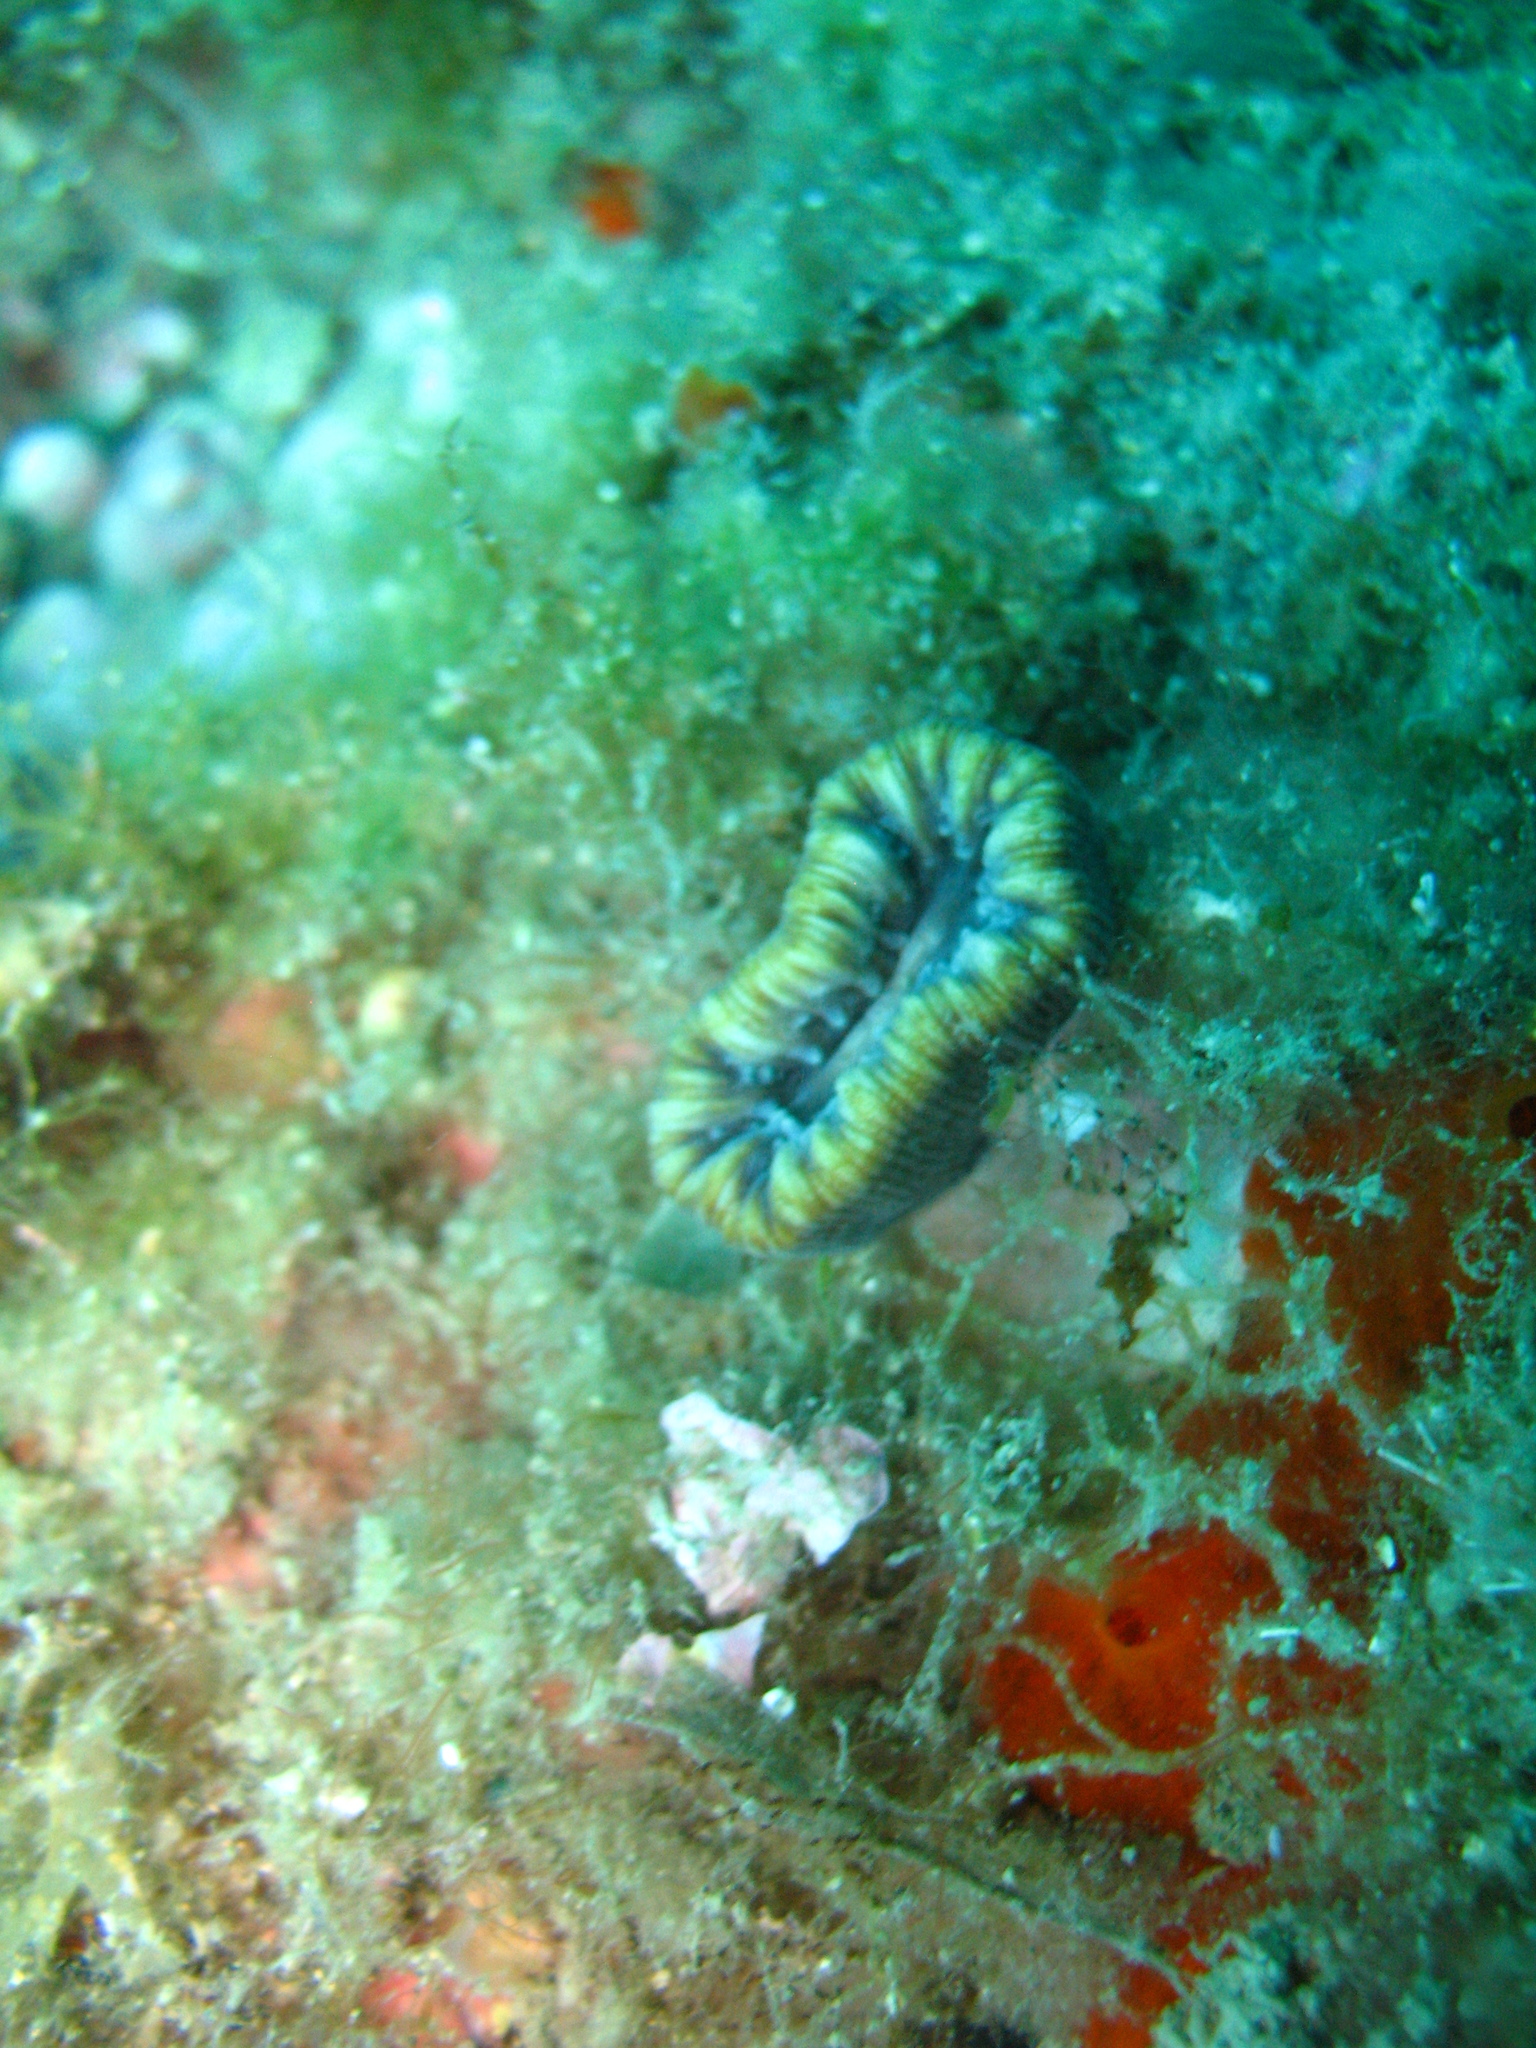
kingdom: Animalia
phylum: Cnidaria
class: Anthozoa
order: Scleractinia
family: Dendrophylliidae
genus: Balanophyllia
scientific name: Balanophyllia europaea
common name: Scarlet coral
